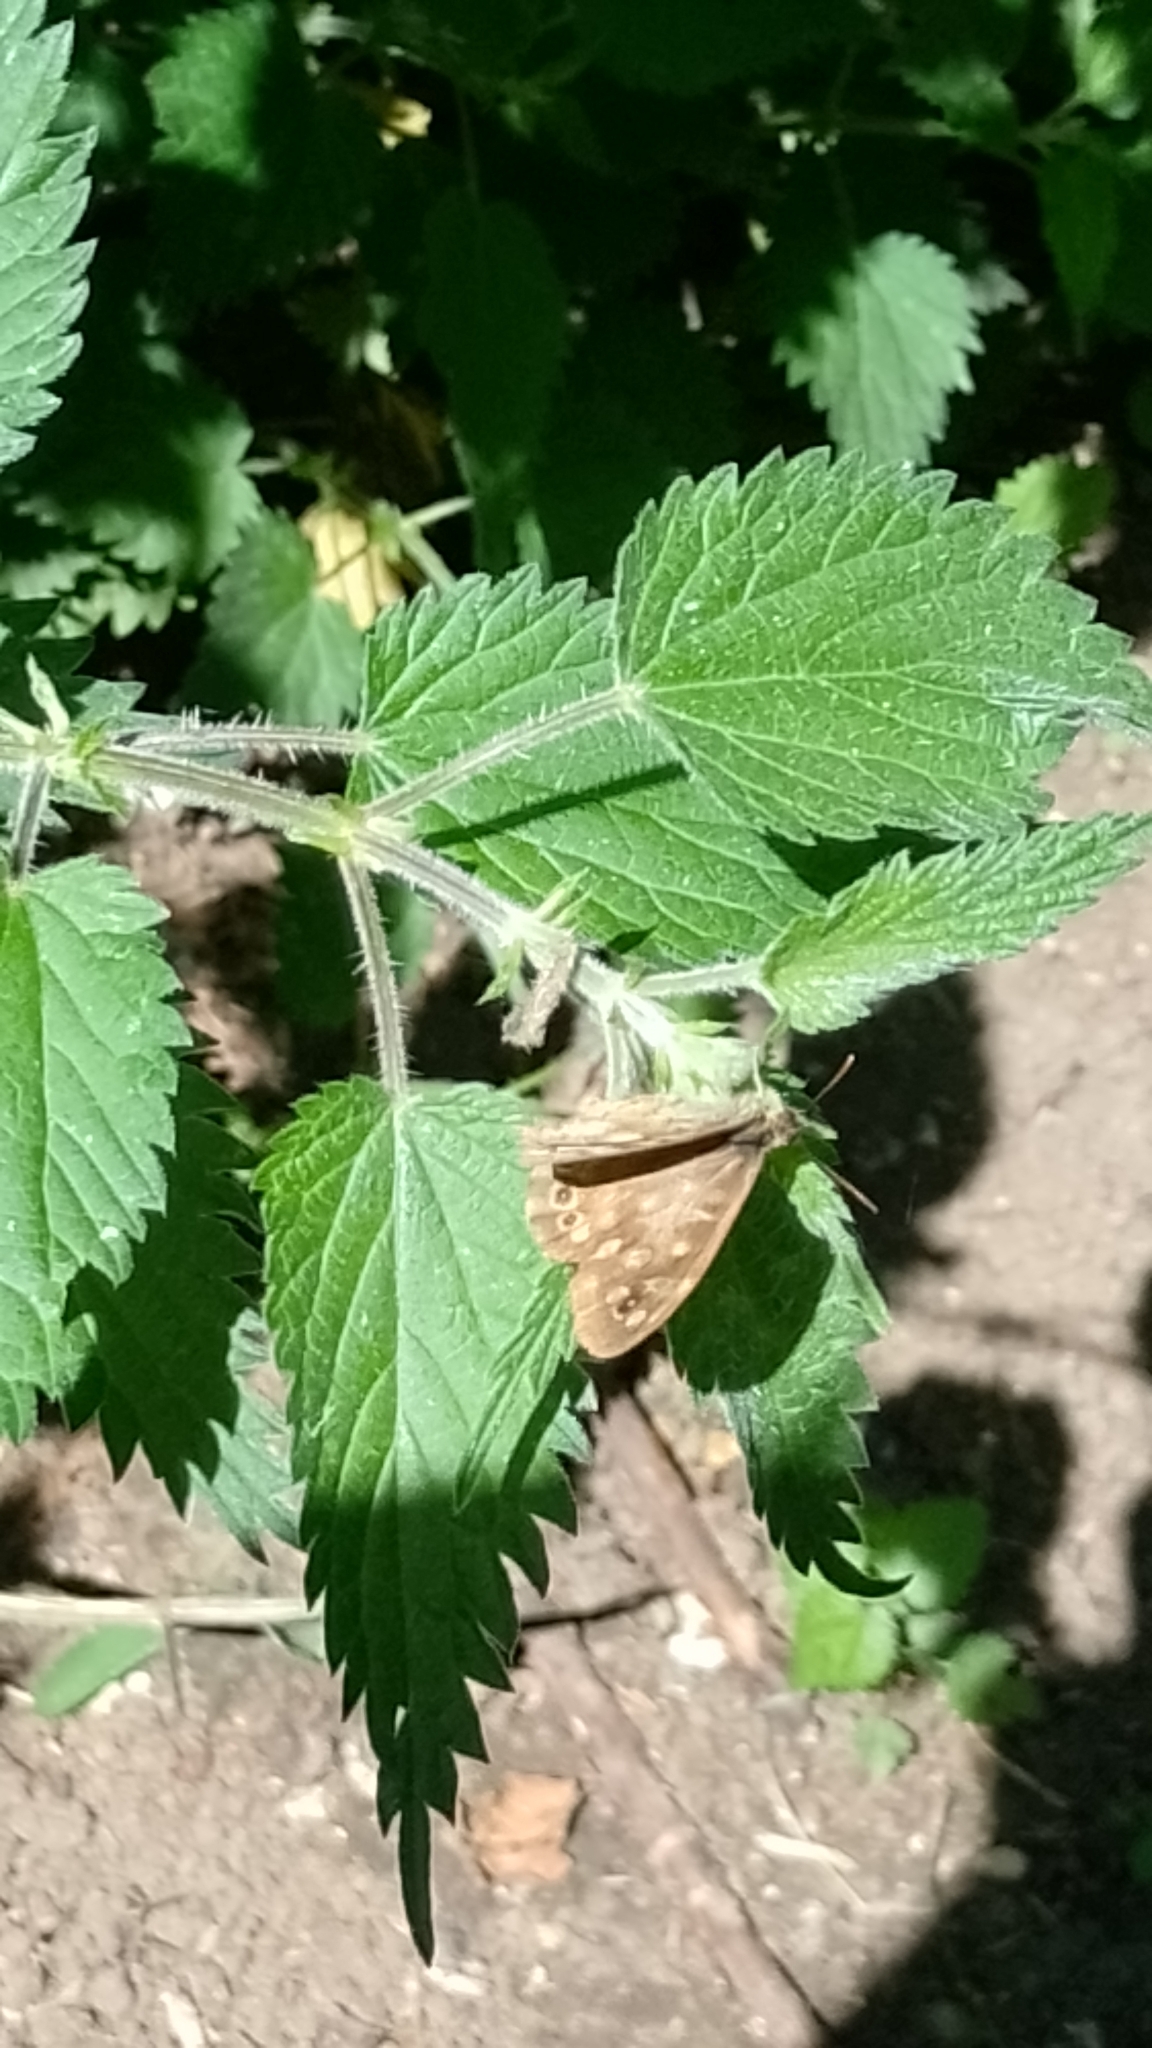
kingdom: Animalia
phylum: Arthropoda
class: Insecta
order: Lepidoptera
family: Nymphalidae
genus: Pararge
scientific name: Pararge aegeria
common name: Speckled wood
